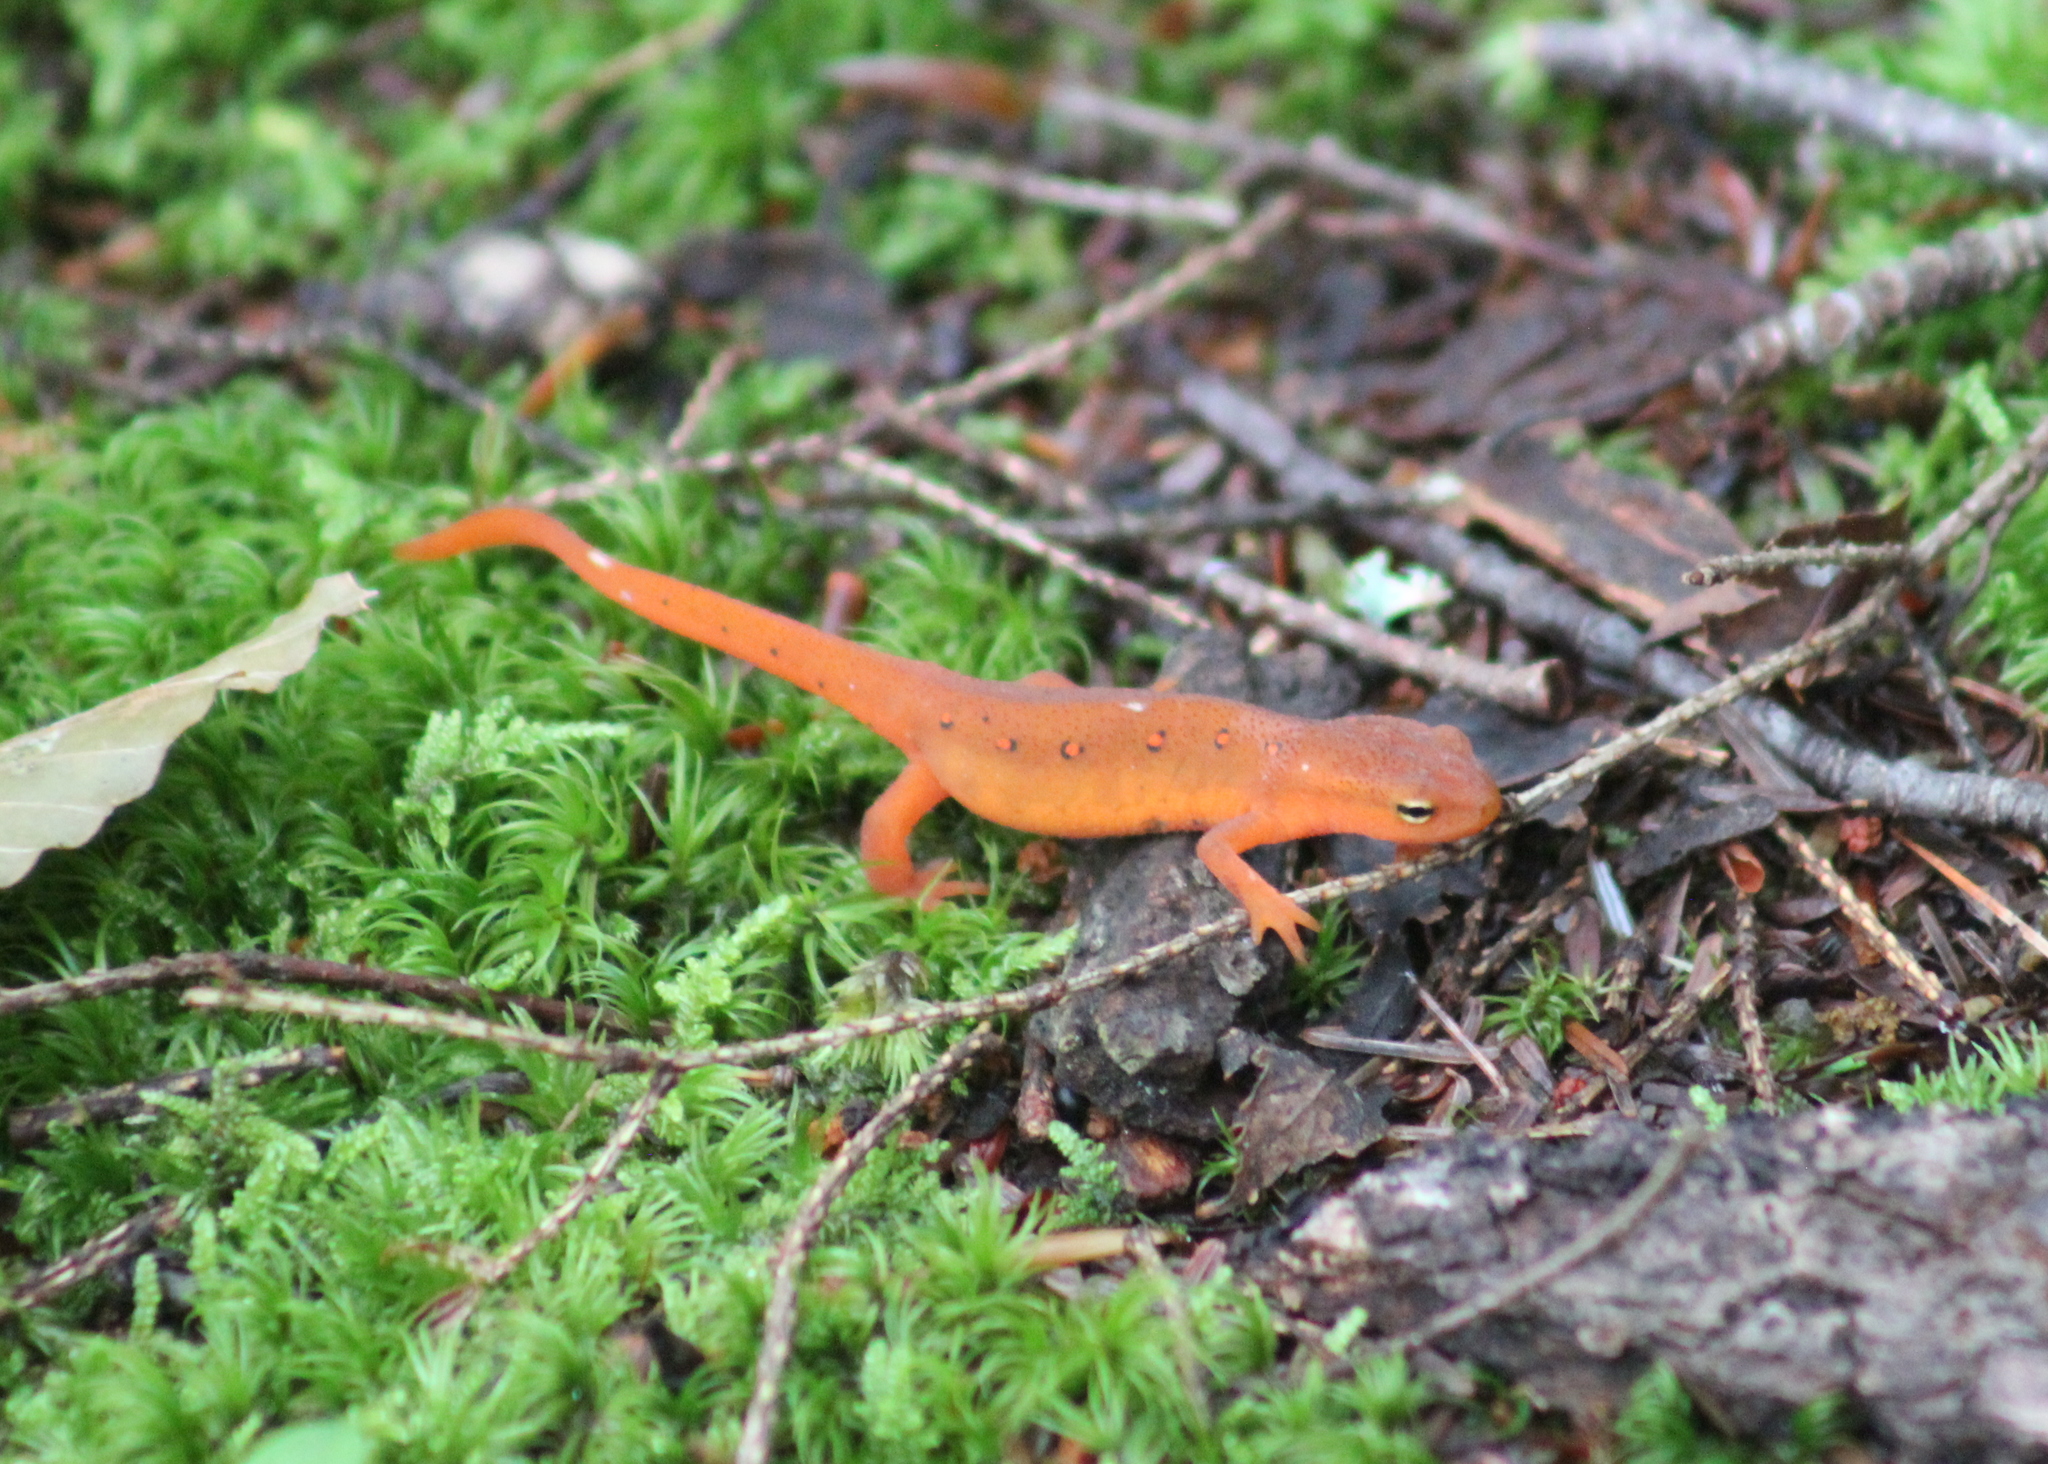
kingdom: Animalia
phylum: Chordata
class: Amphibia
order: Caudata
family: Salamandridae
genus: Notophthalmus
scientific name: Notophthalmus viridescens
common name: Eastern newt
